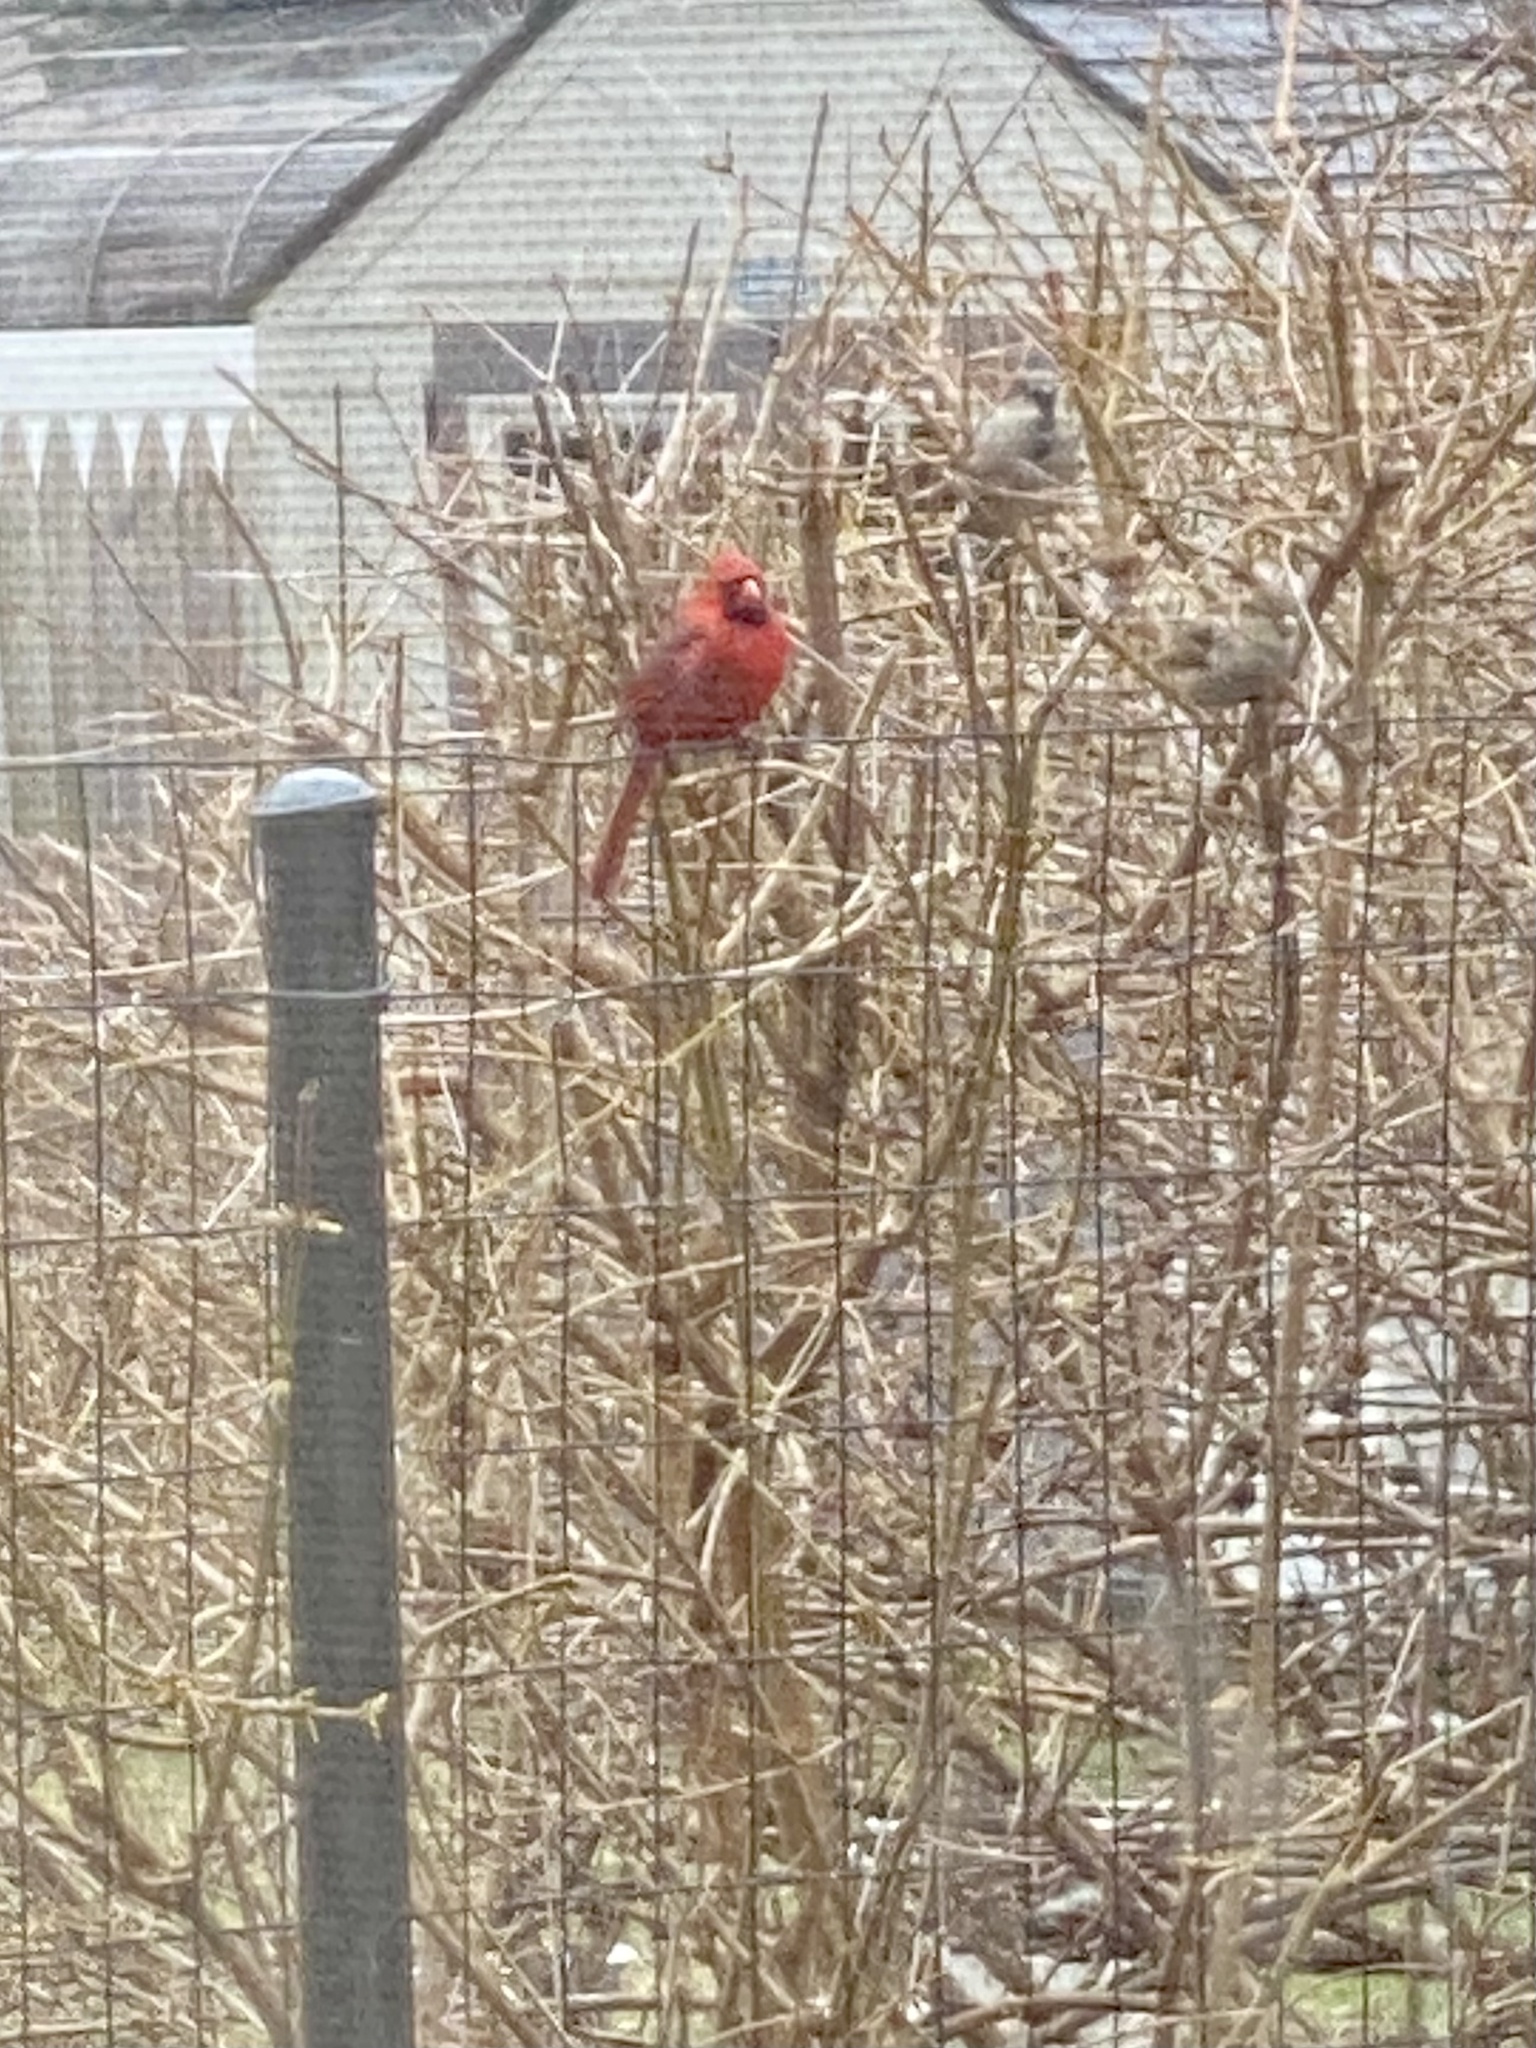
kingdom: Animalia
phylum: Chordata
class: Aves
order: Passeriformes
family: Cardinalidae
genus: Cardinalis
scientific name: Cardinalis cardinalis
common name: Northern cardinal
